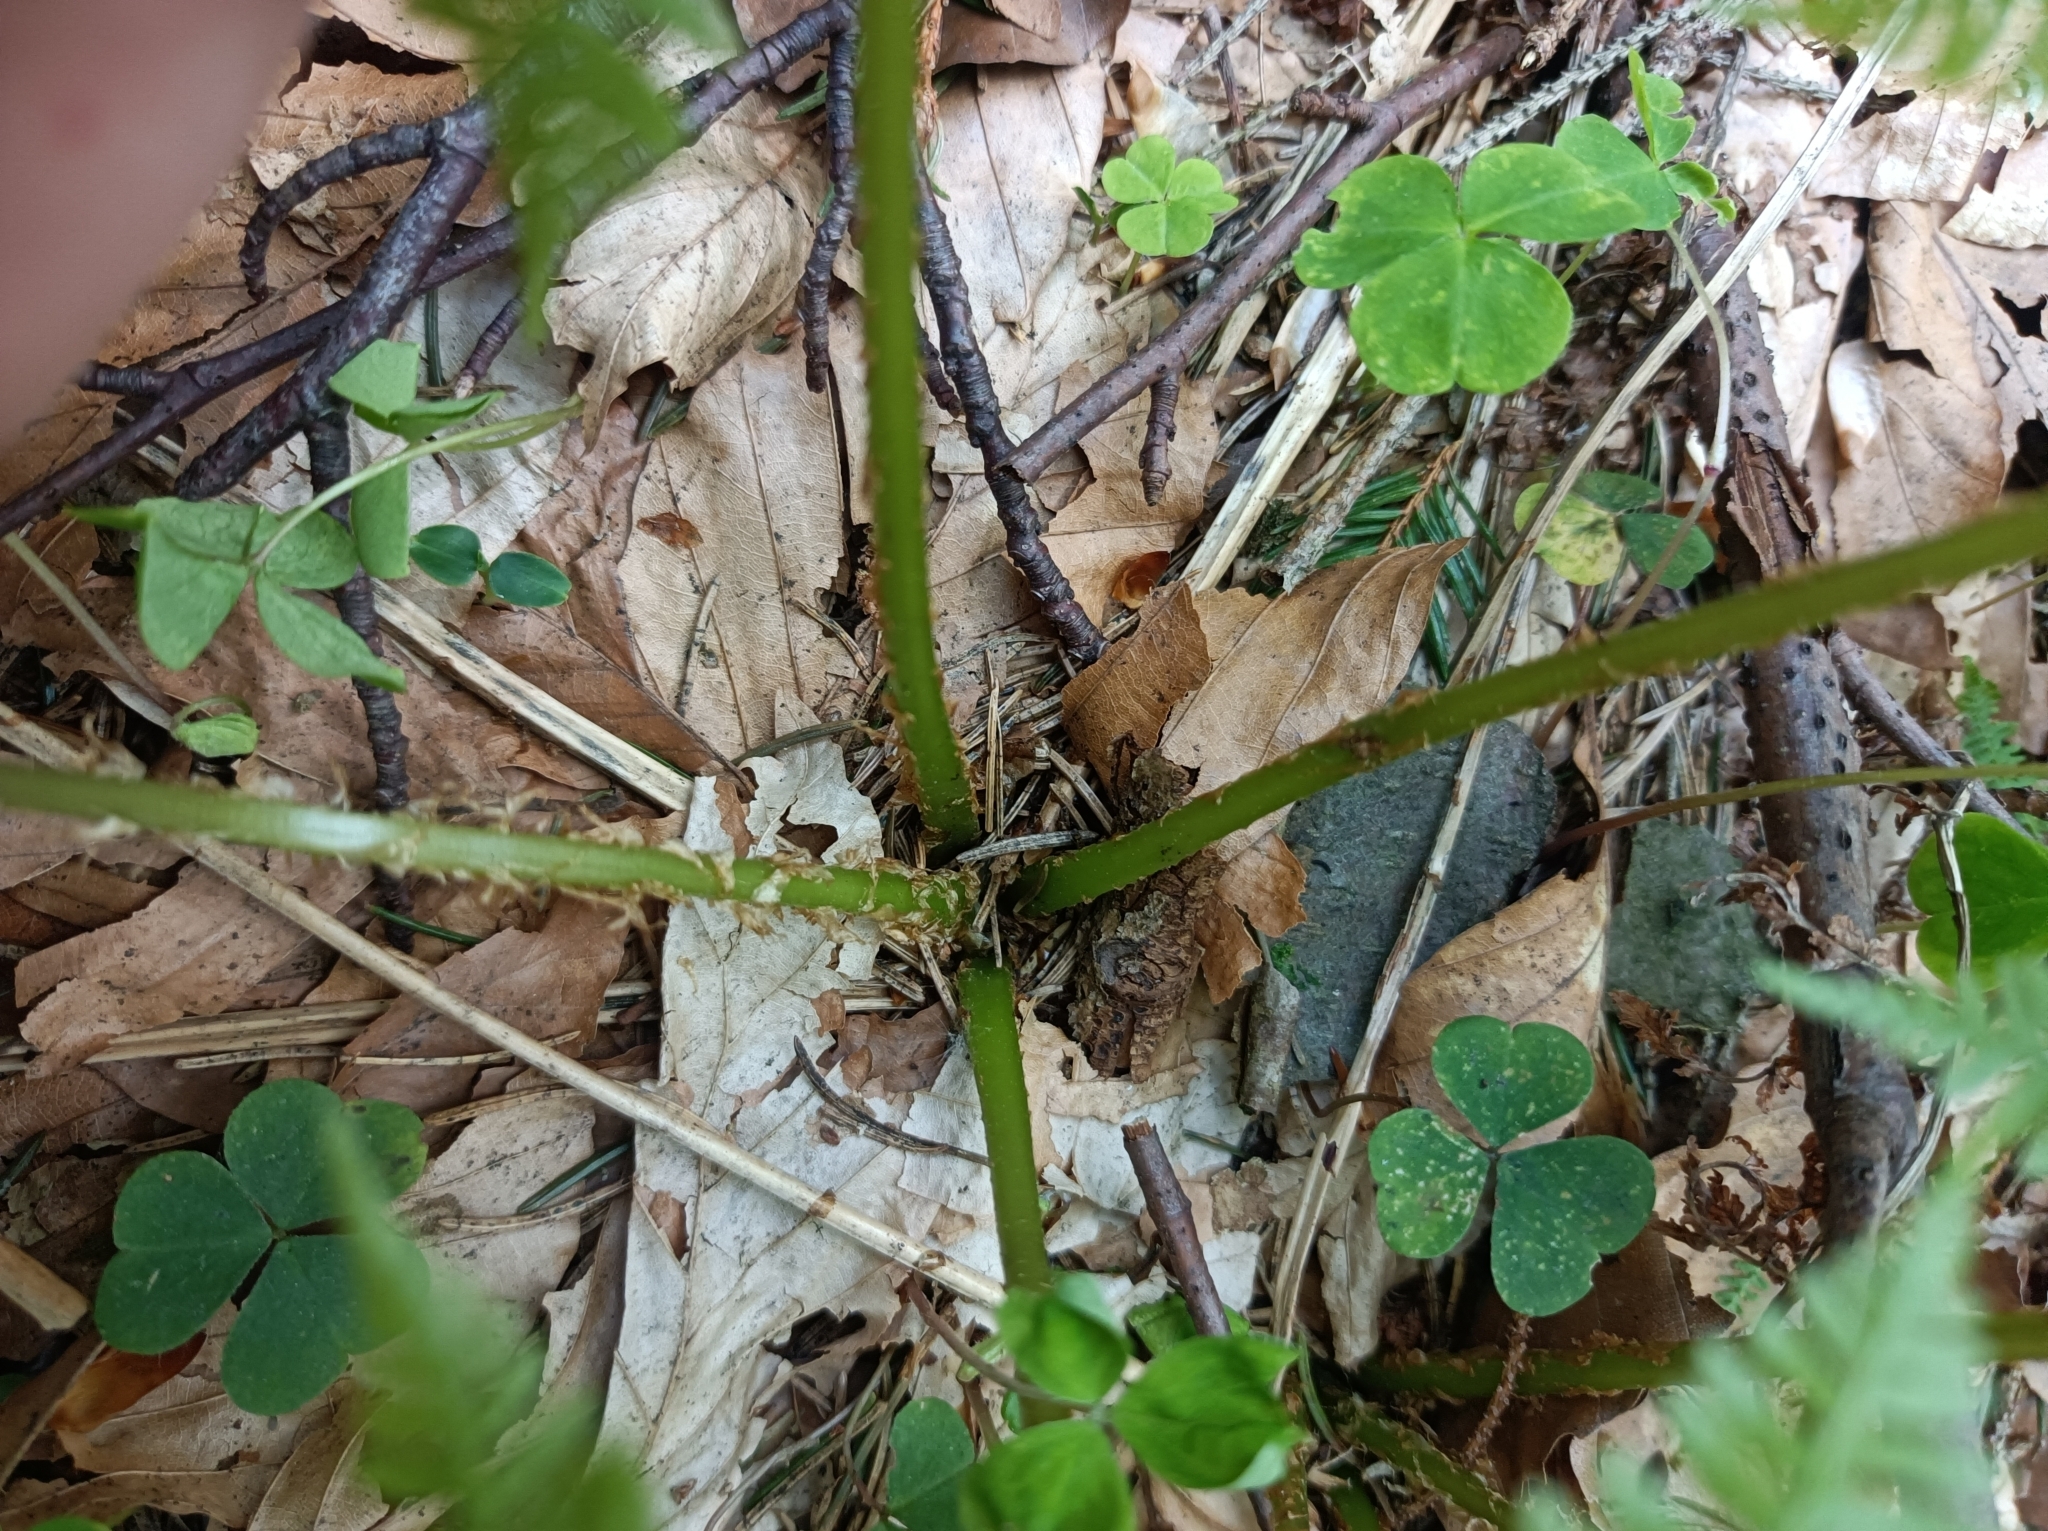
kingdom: Plantae
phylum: Tracheophyta
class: Polypodiopsida
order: Polypodiales
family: Athyriaceae
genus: Athyrium
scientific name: Athyrium filix-femina
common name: Lady fern
